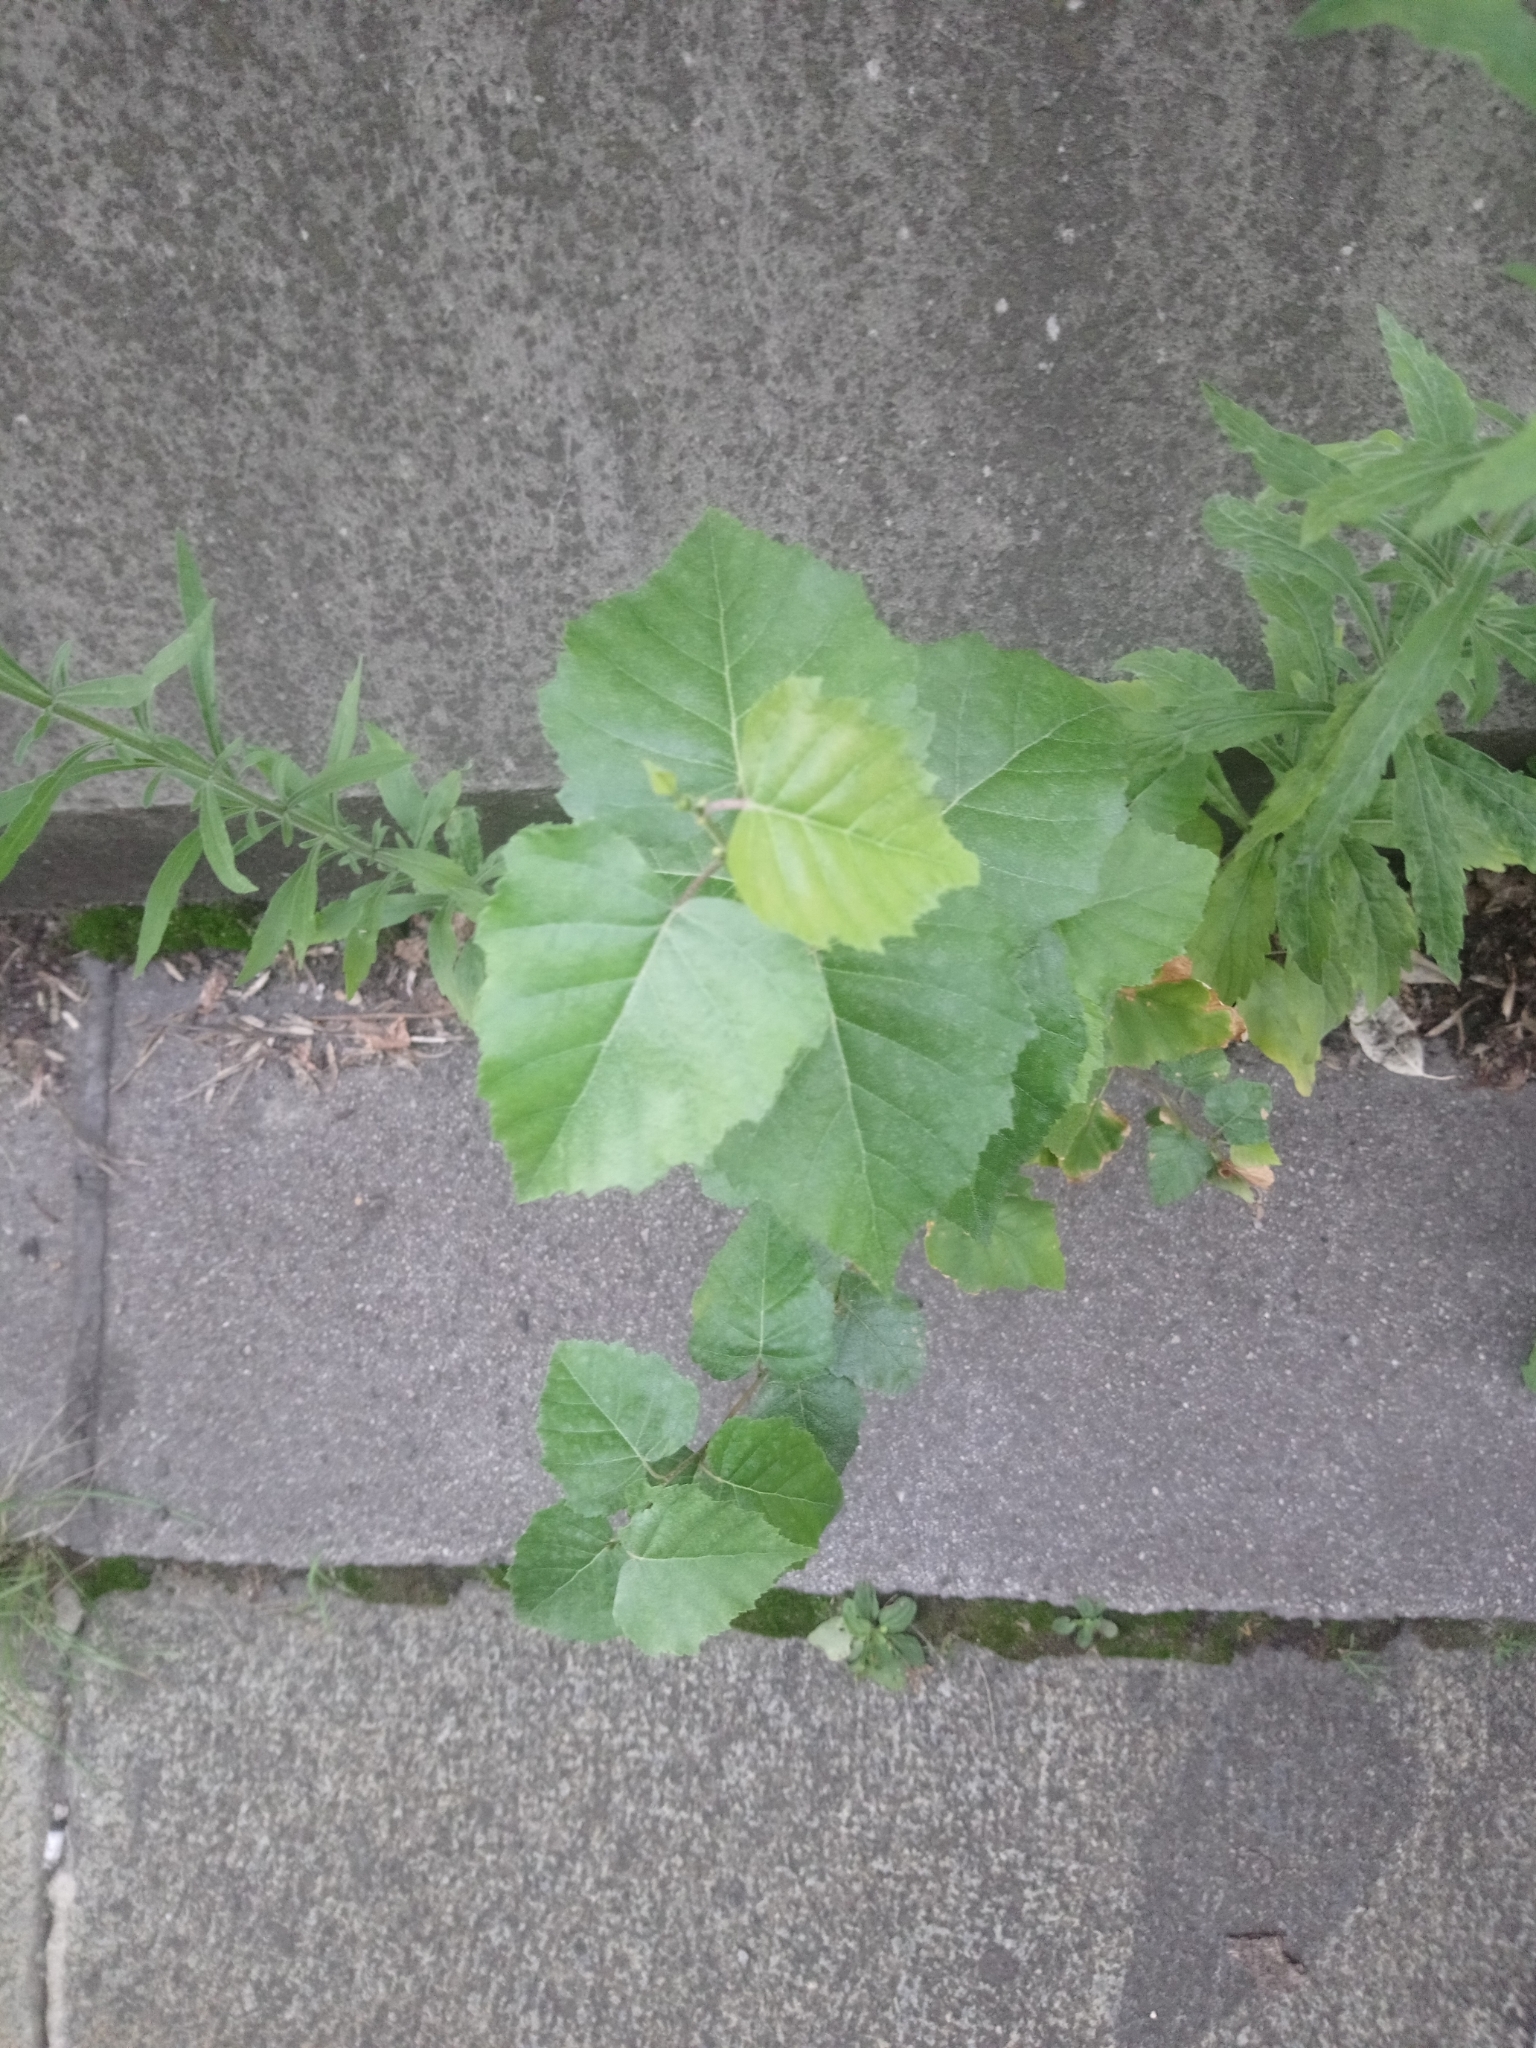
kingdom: Plantae
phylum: Tracheophyta
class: Magnoliopsida
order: Fagales
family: Betulaceae
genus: Betula
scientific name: Betula pendula
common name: Silver birch
